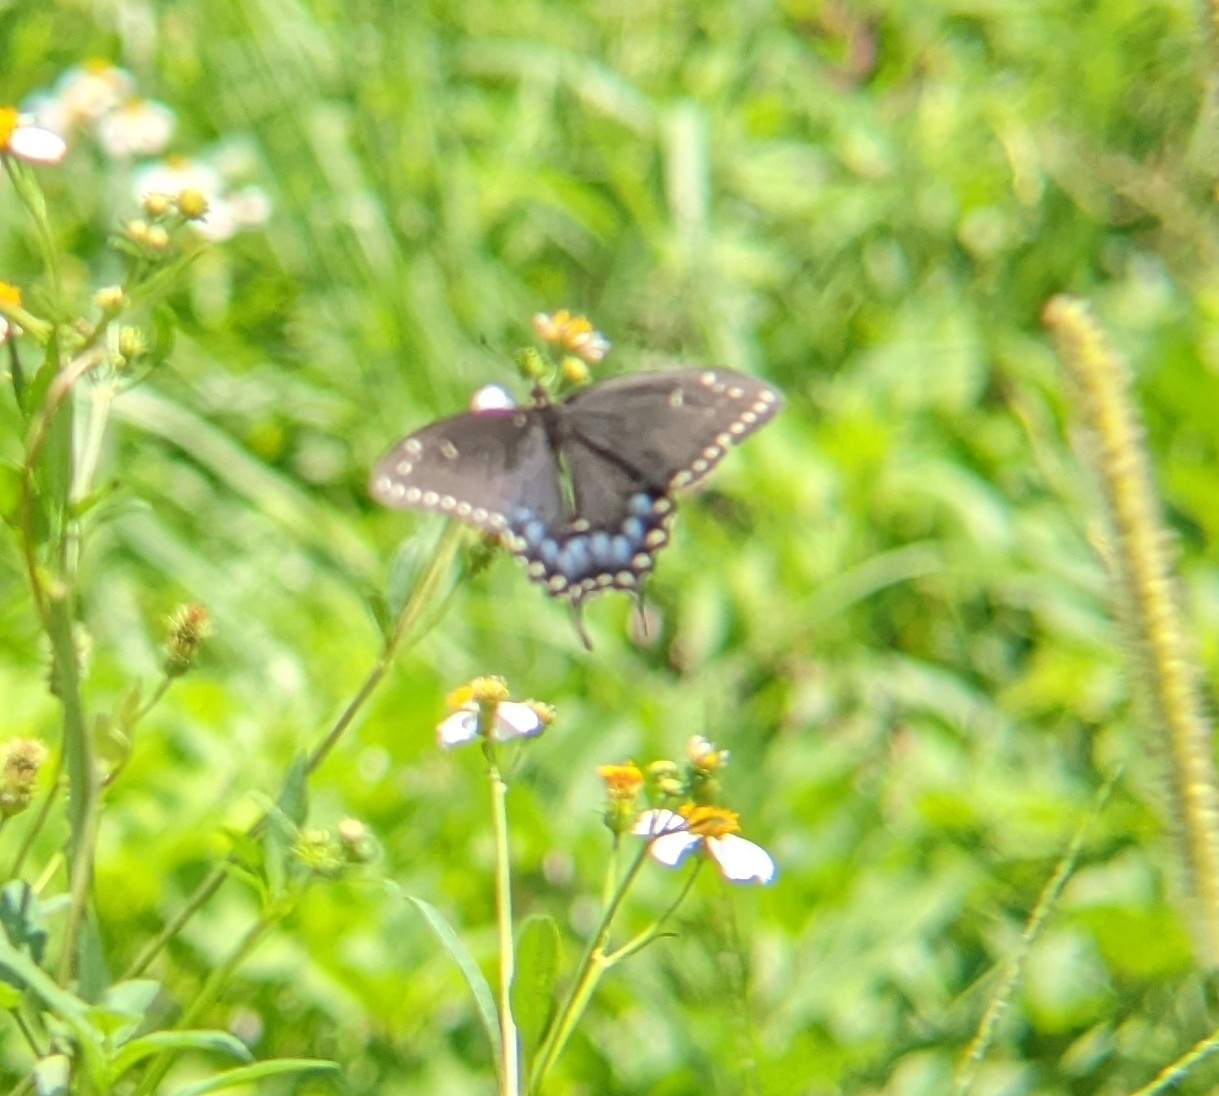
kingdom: Animalia
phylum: Arthropoda
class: Insecta
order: Lepidoptera
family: Papilionidae
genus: Papilio
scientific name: Papilio polyxenes
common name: Black swallowtail
